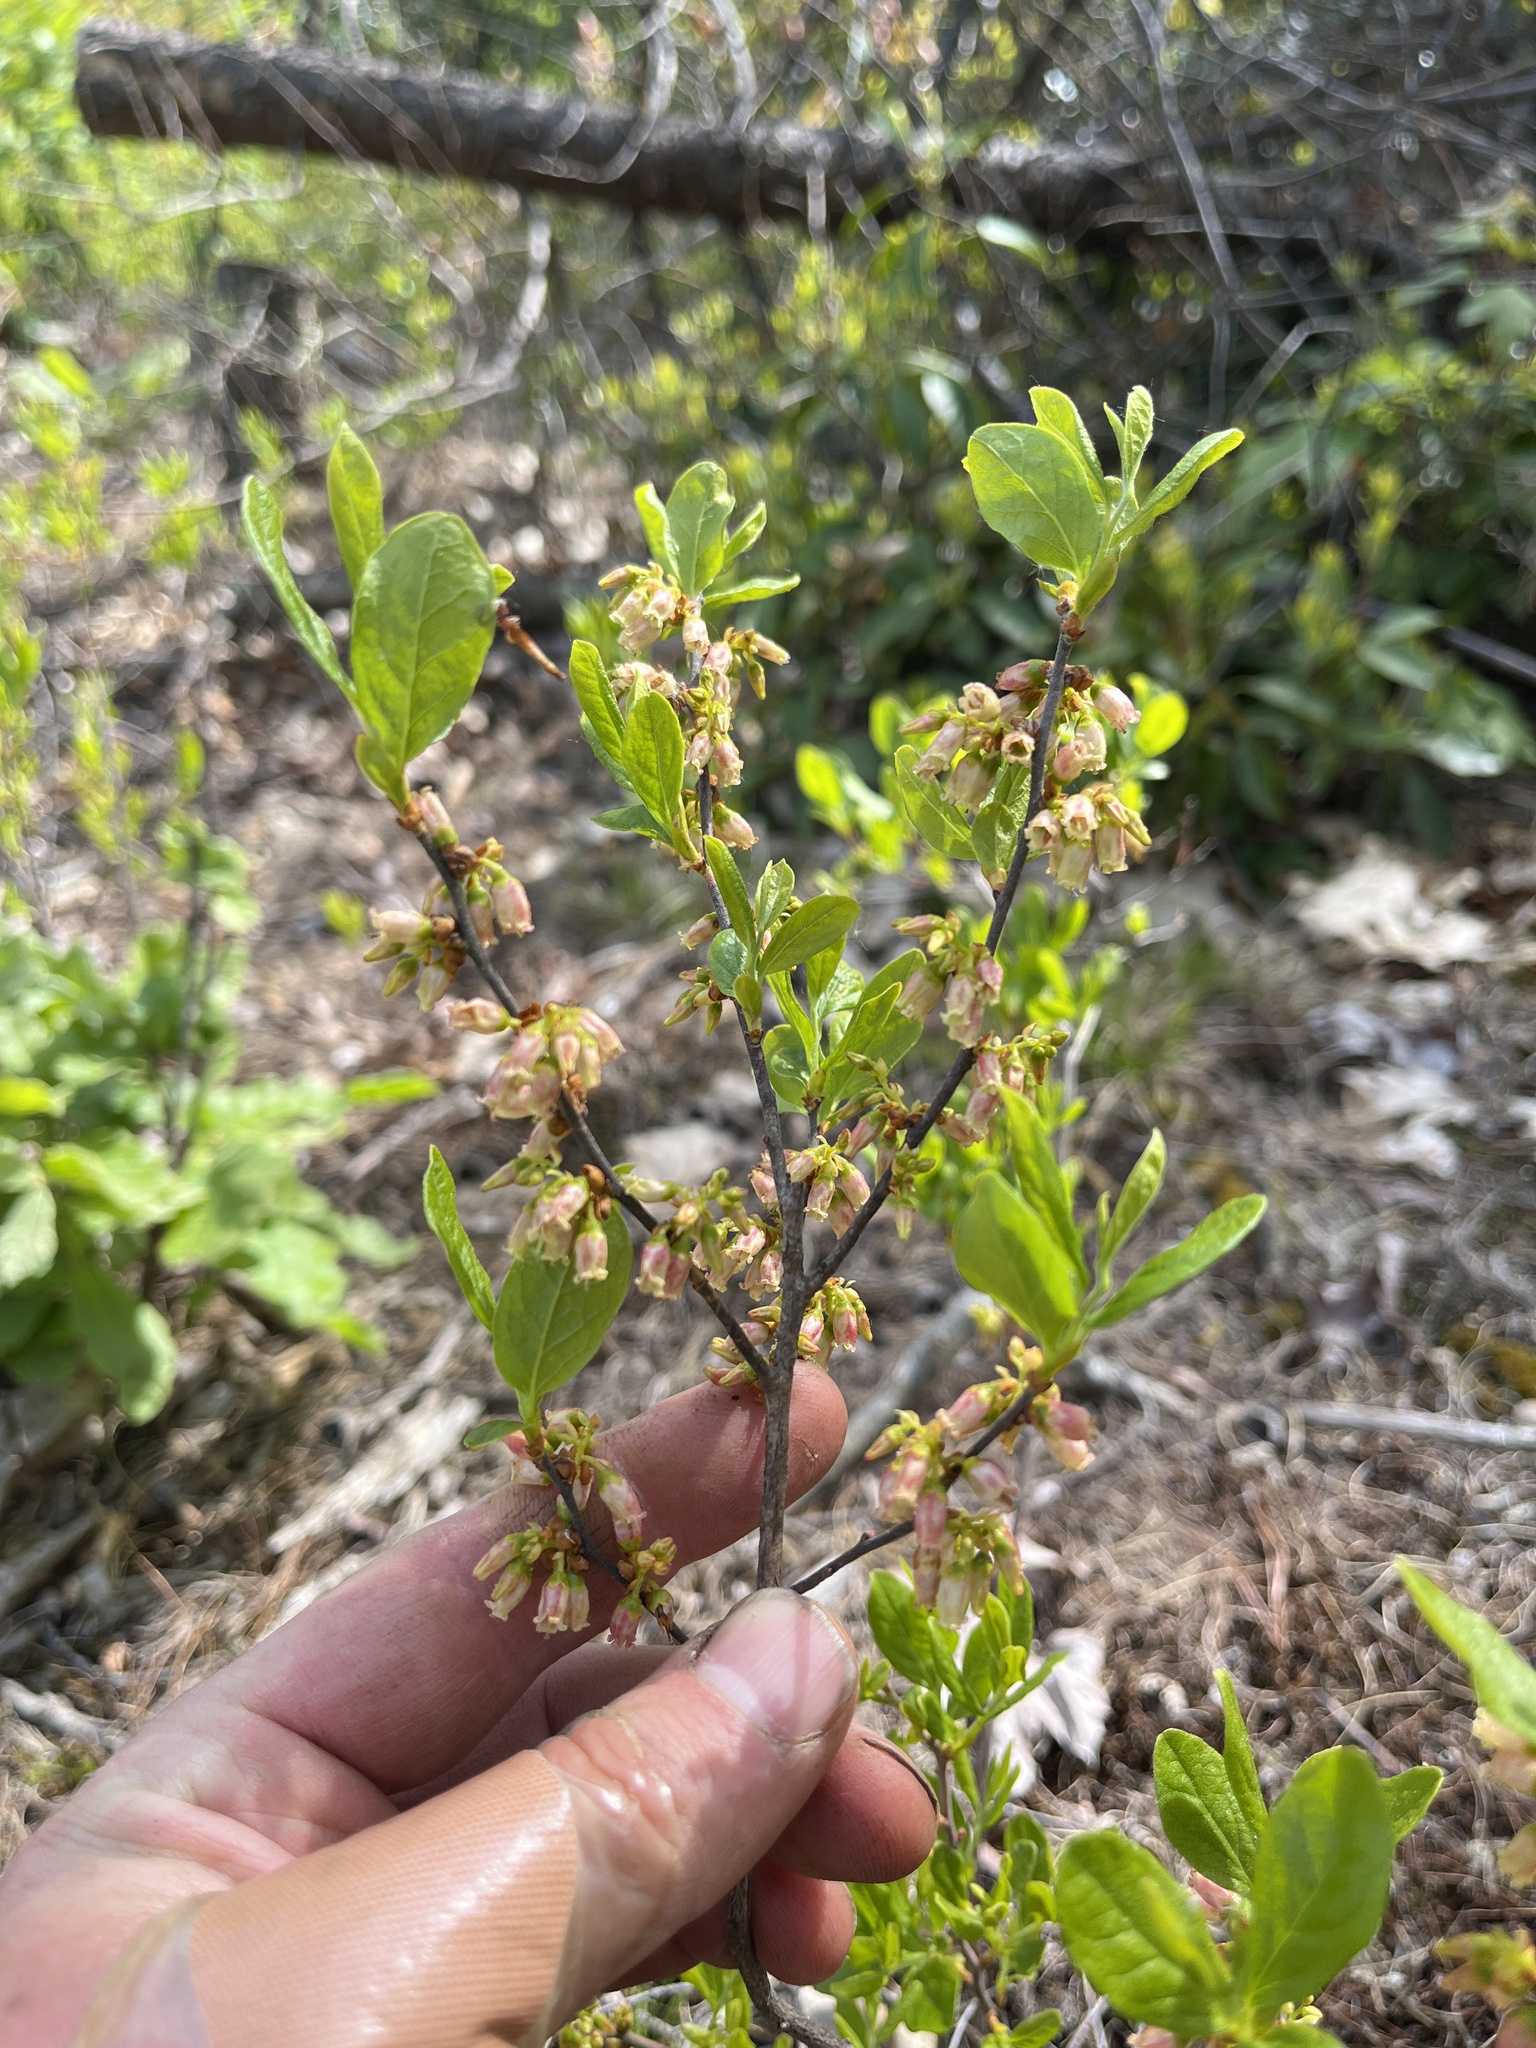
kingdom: Plantae
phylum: Tracheophyta
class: Magnoliopsida
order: Ericales
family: Ericaceae
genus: Gaylussacia
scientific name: Gaylussacia baccata
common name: Black huckleberry
